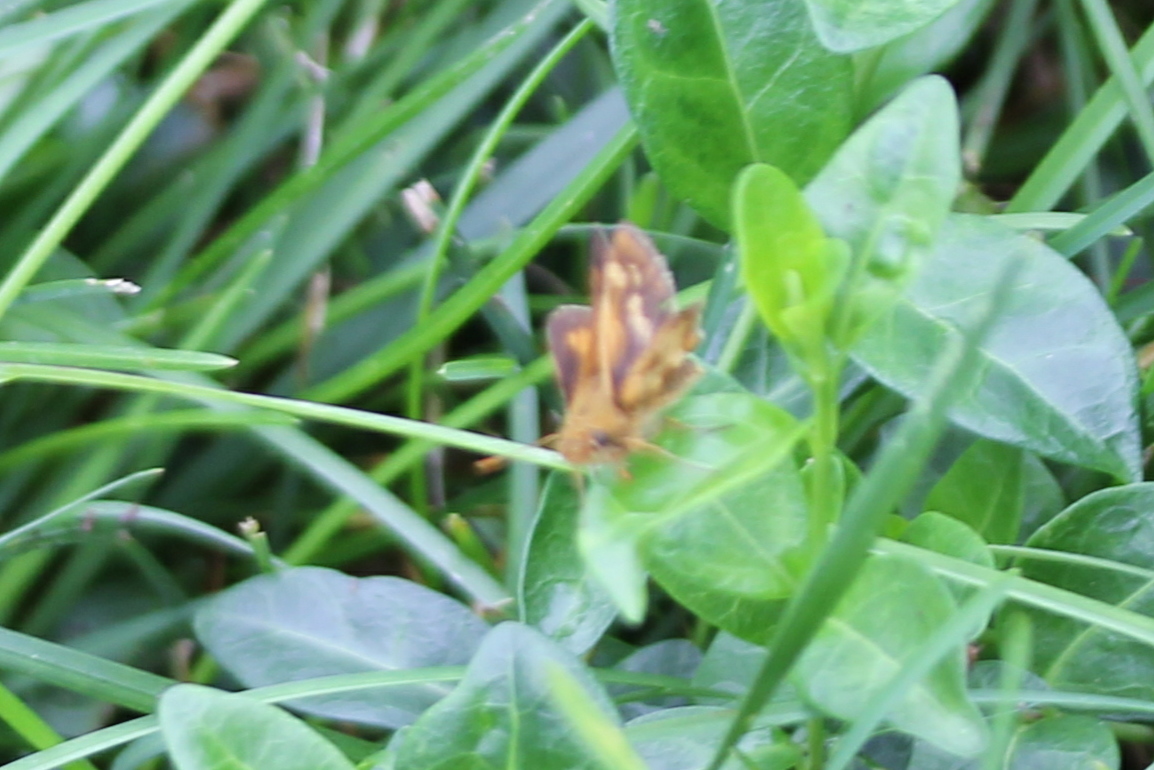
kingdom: Animalia
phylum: Arthropoda
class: Insecta
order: Lepidoptera
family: Hesperiidae
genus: Polites
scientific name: Polites coras
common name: Peck's skipper
